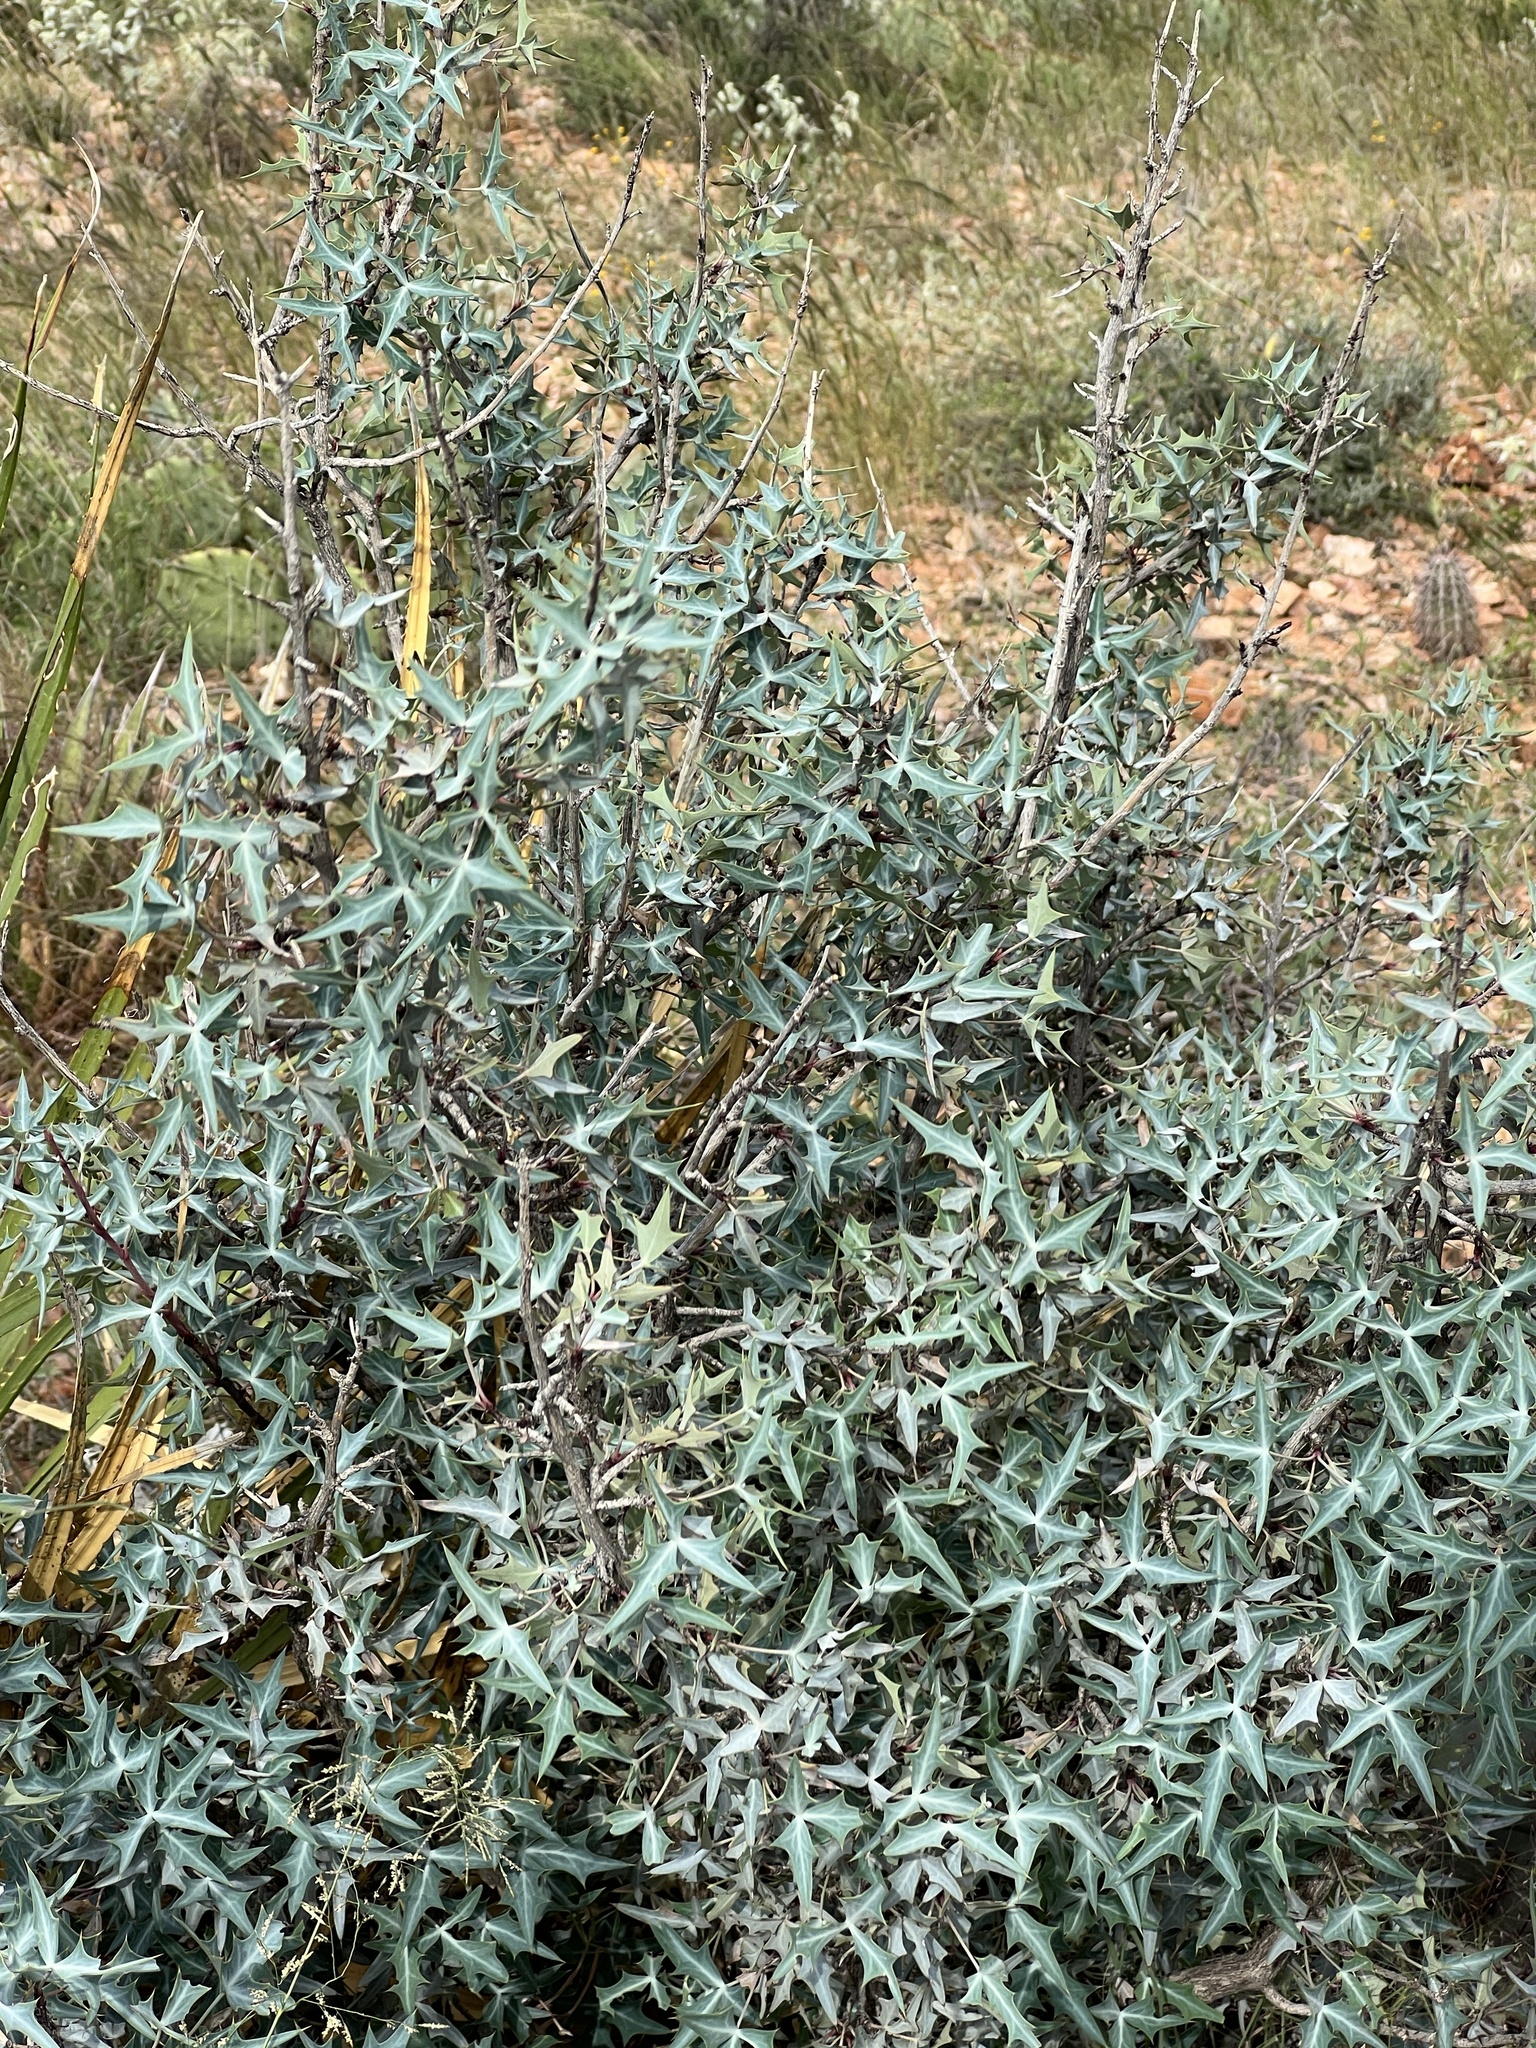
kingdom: Plantae
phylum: Tracheophyta
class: Magnoliopsida
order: Ranunculales
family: Berberidaceae
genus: Alloberberis
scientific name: Alloberberis trifoliolata
